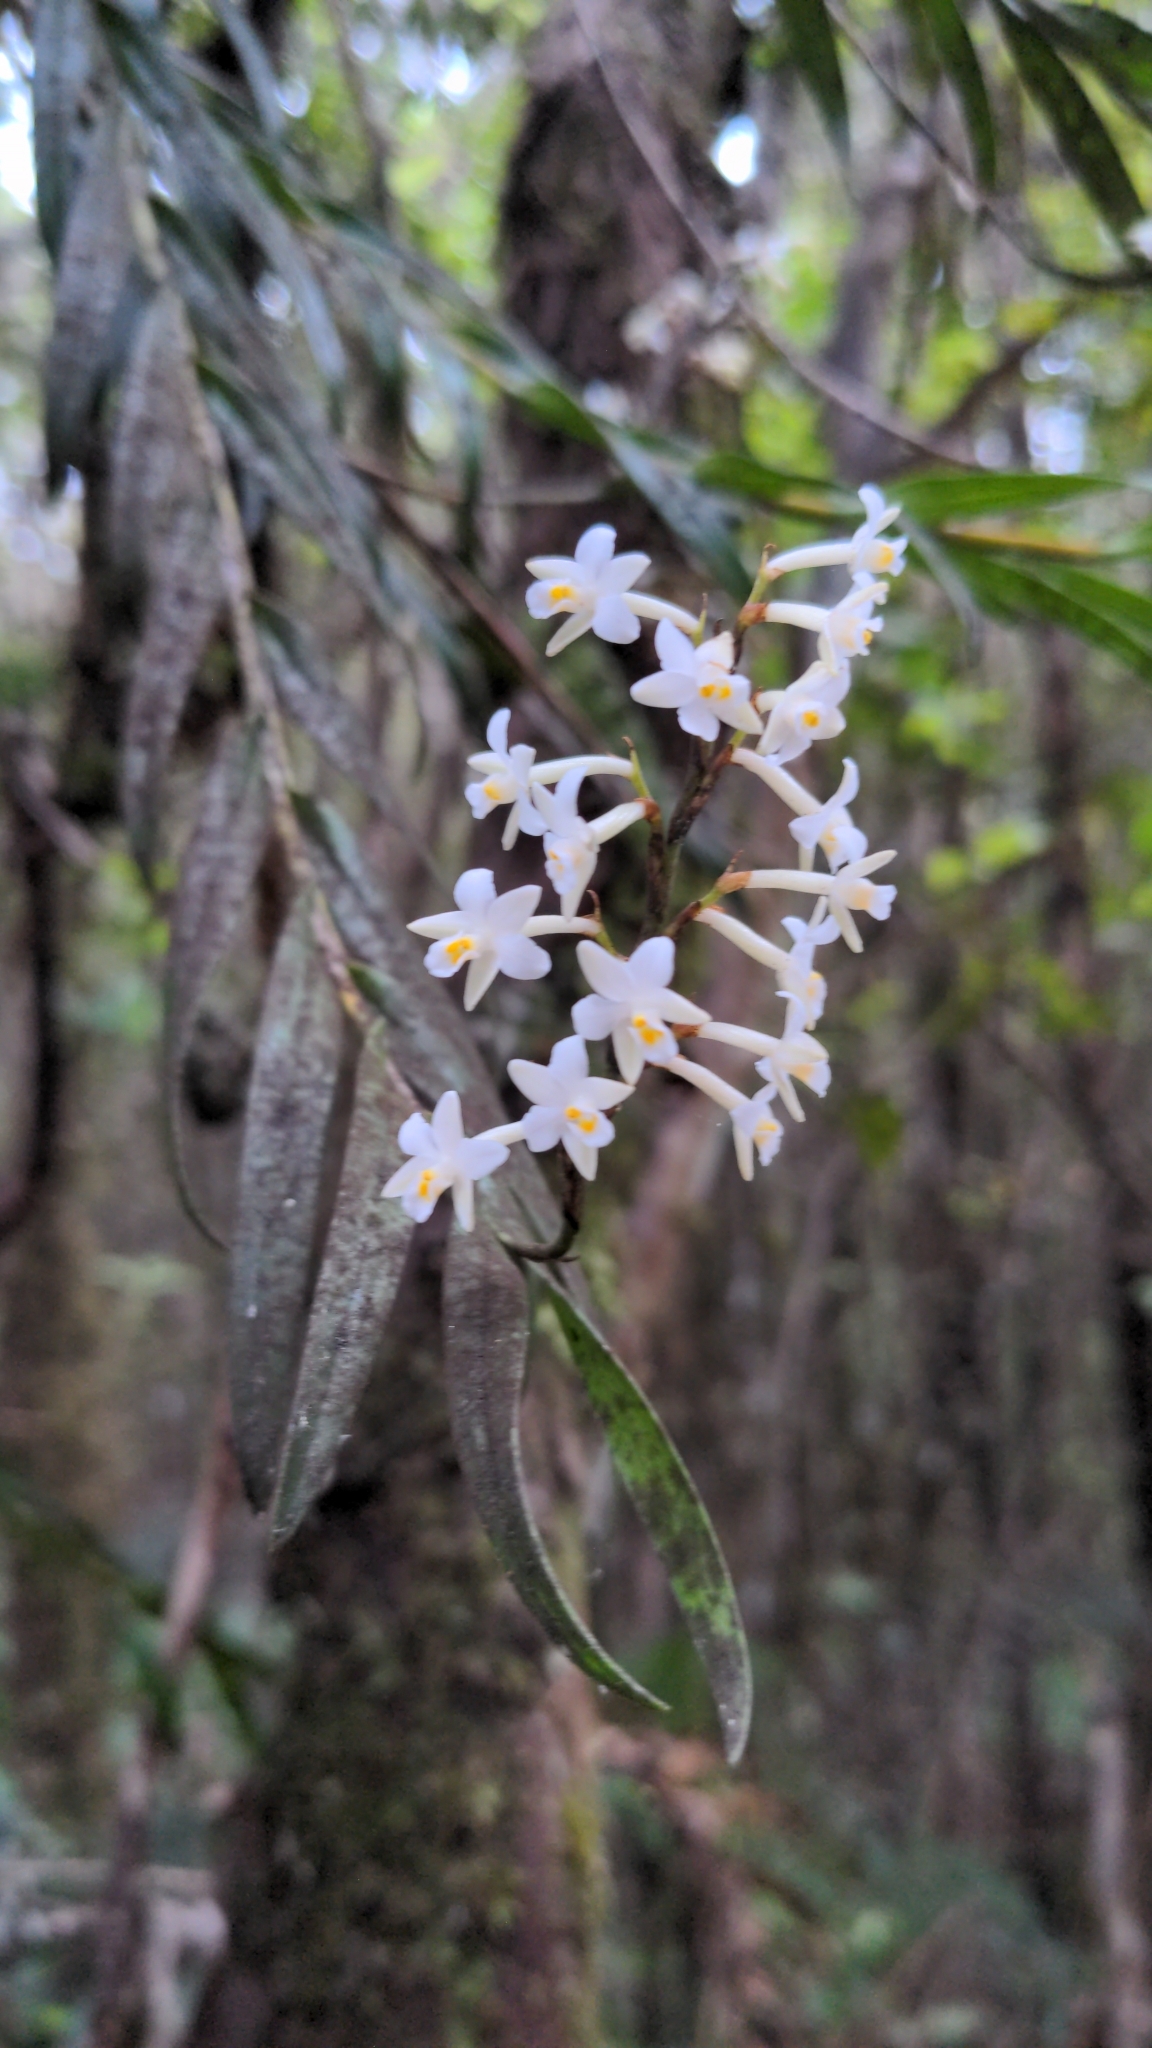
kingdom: Plantae
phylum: Tracheophyta
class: Liliopsida
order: Asparagales
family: Orchidaceae
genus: Earina
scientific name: Earina autumnalis
